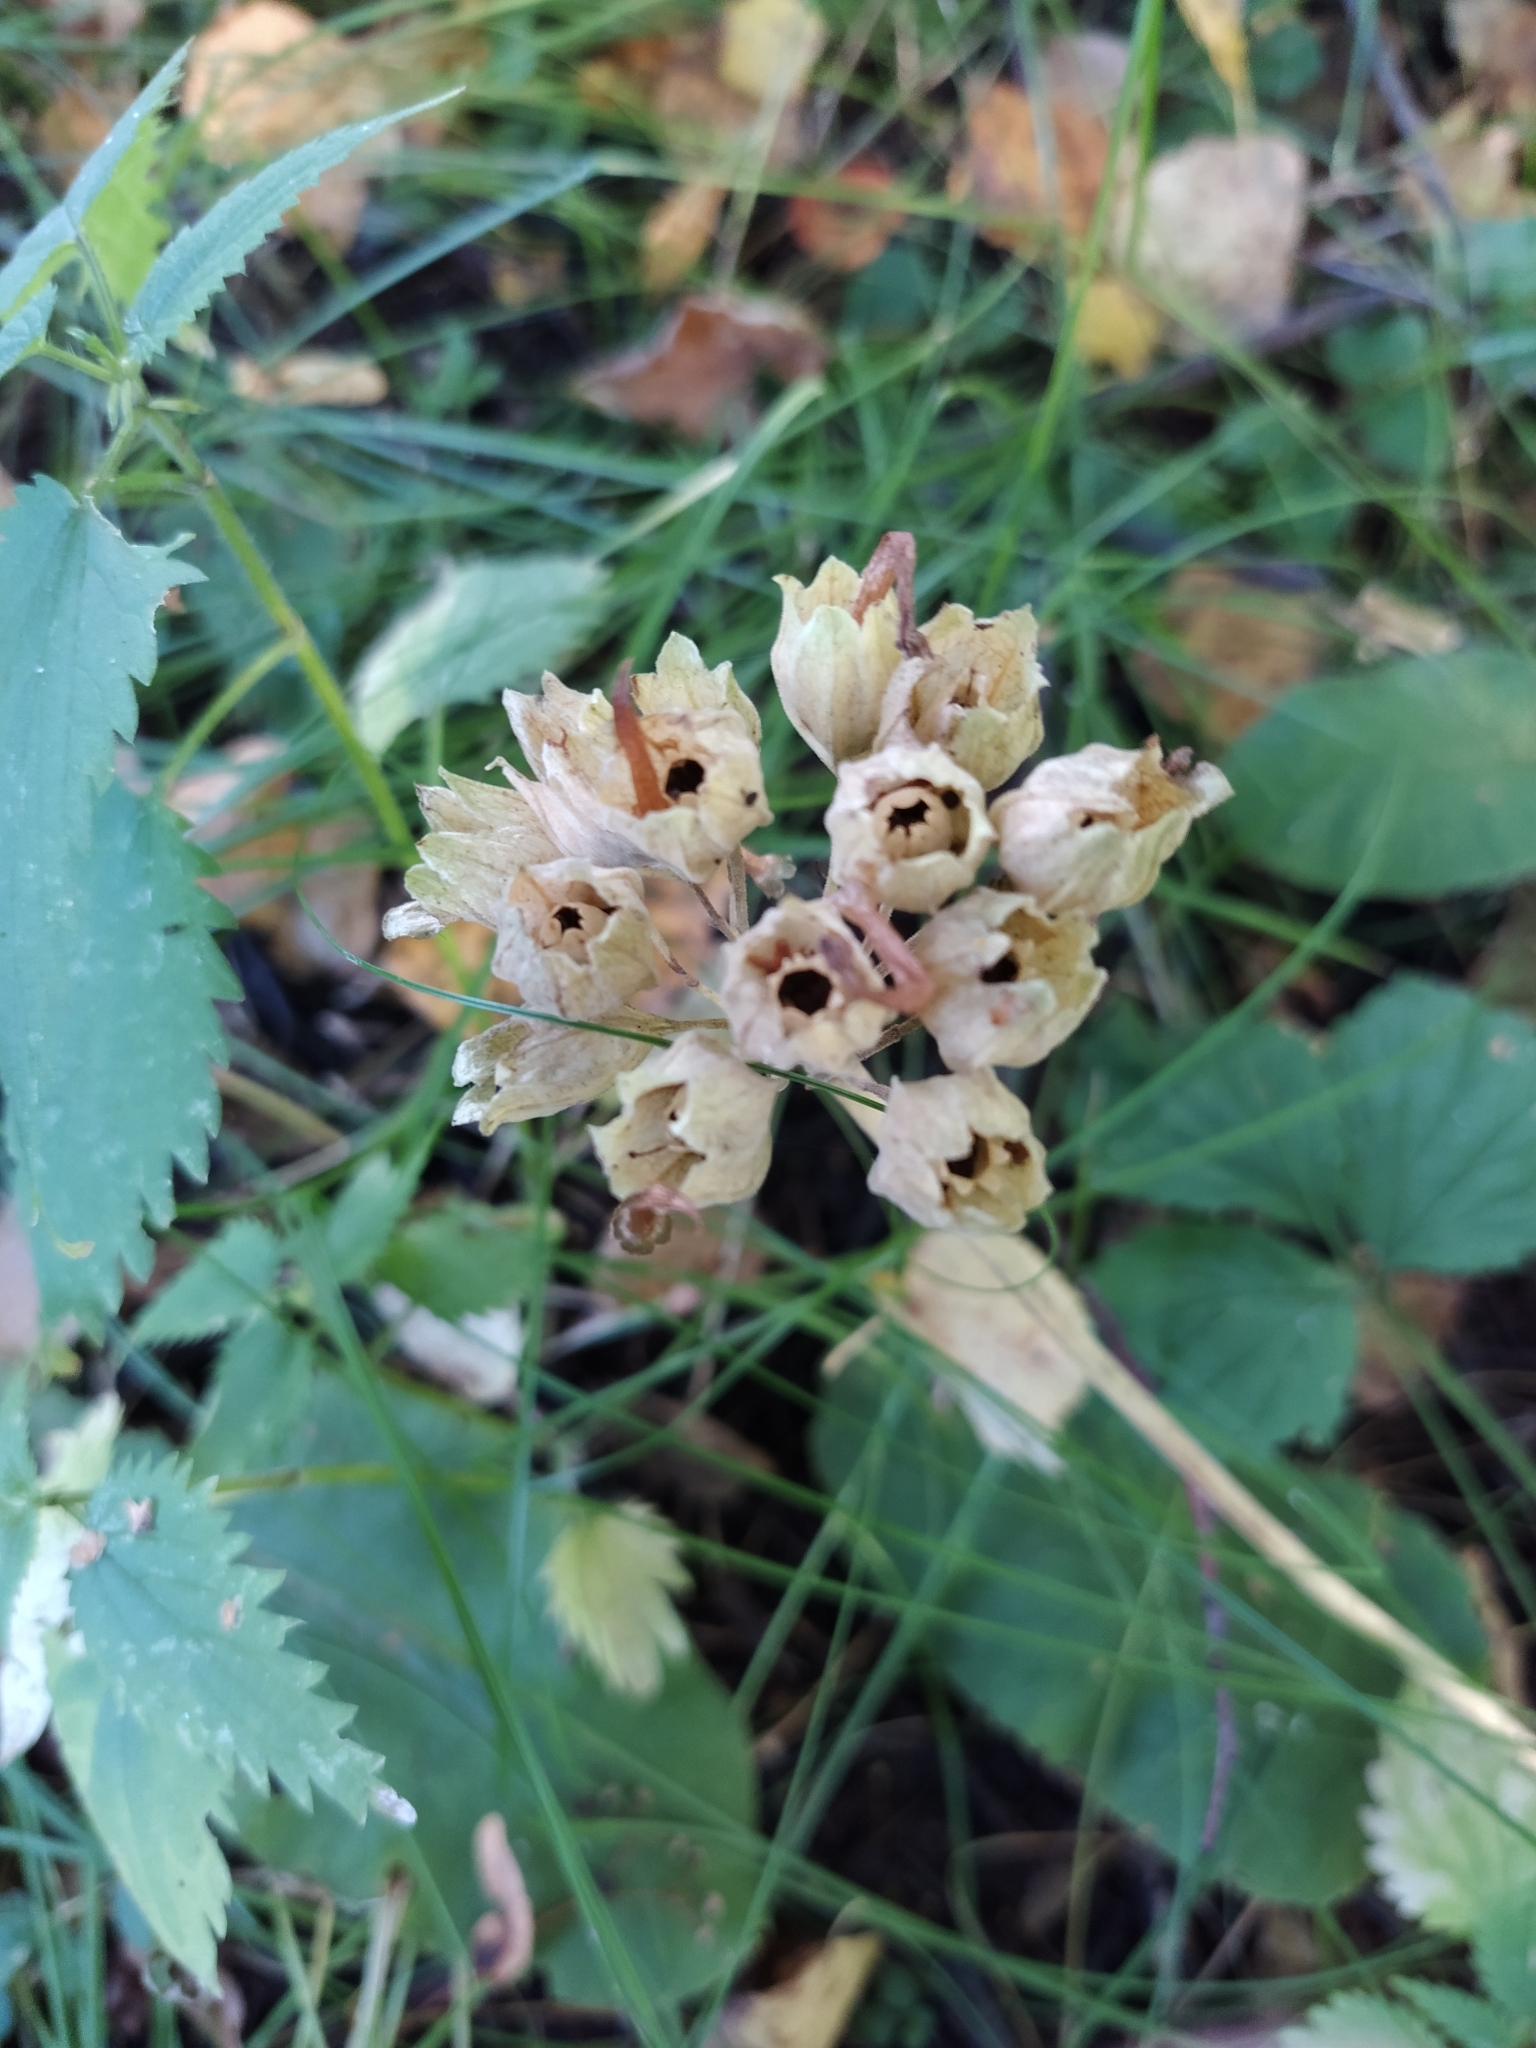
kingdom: Plantae
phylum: Tracheophyta
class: Magnoliopsida
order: Ericales
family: Primulaceae
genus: Primula
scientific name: Primula veris
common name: Cowslip
